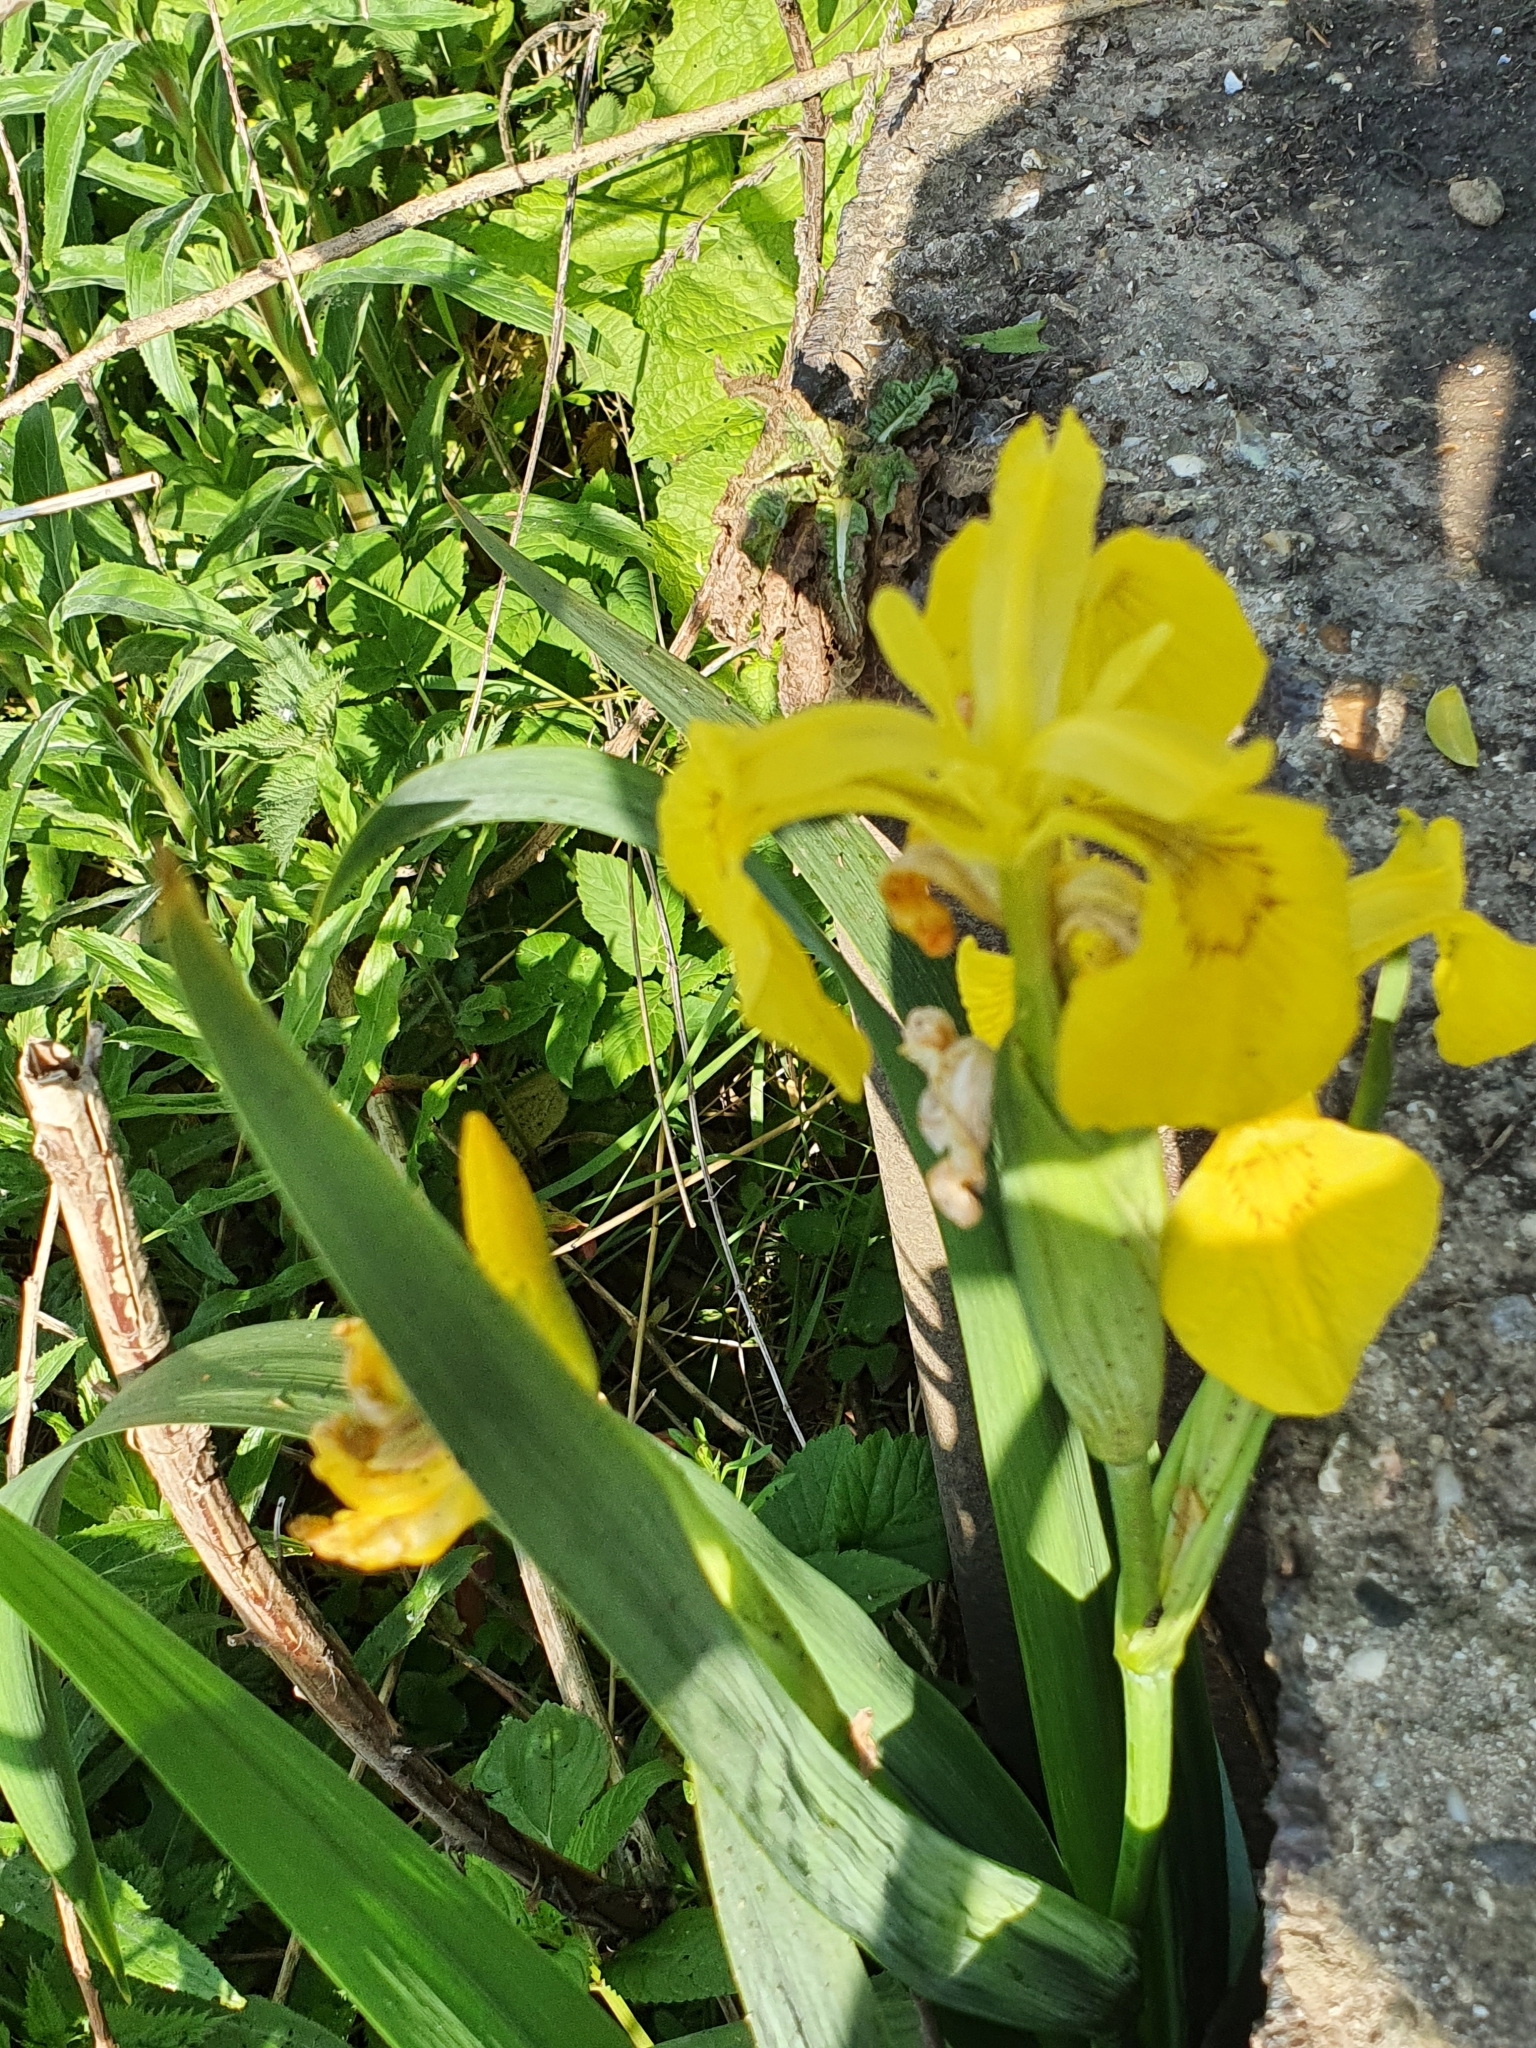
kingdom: Plantae
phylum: Tracheophyta
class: Liliopsida
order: Asparagales
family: Iridaceae
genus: Iris
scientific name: Iris pseudacorus
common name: Yellow flag
